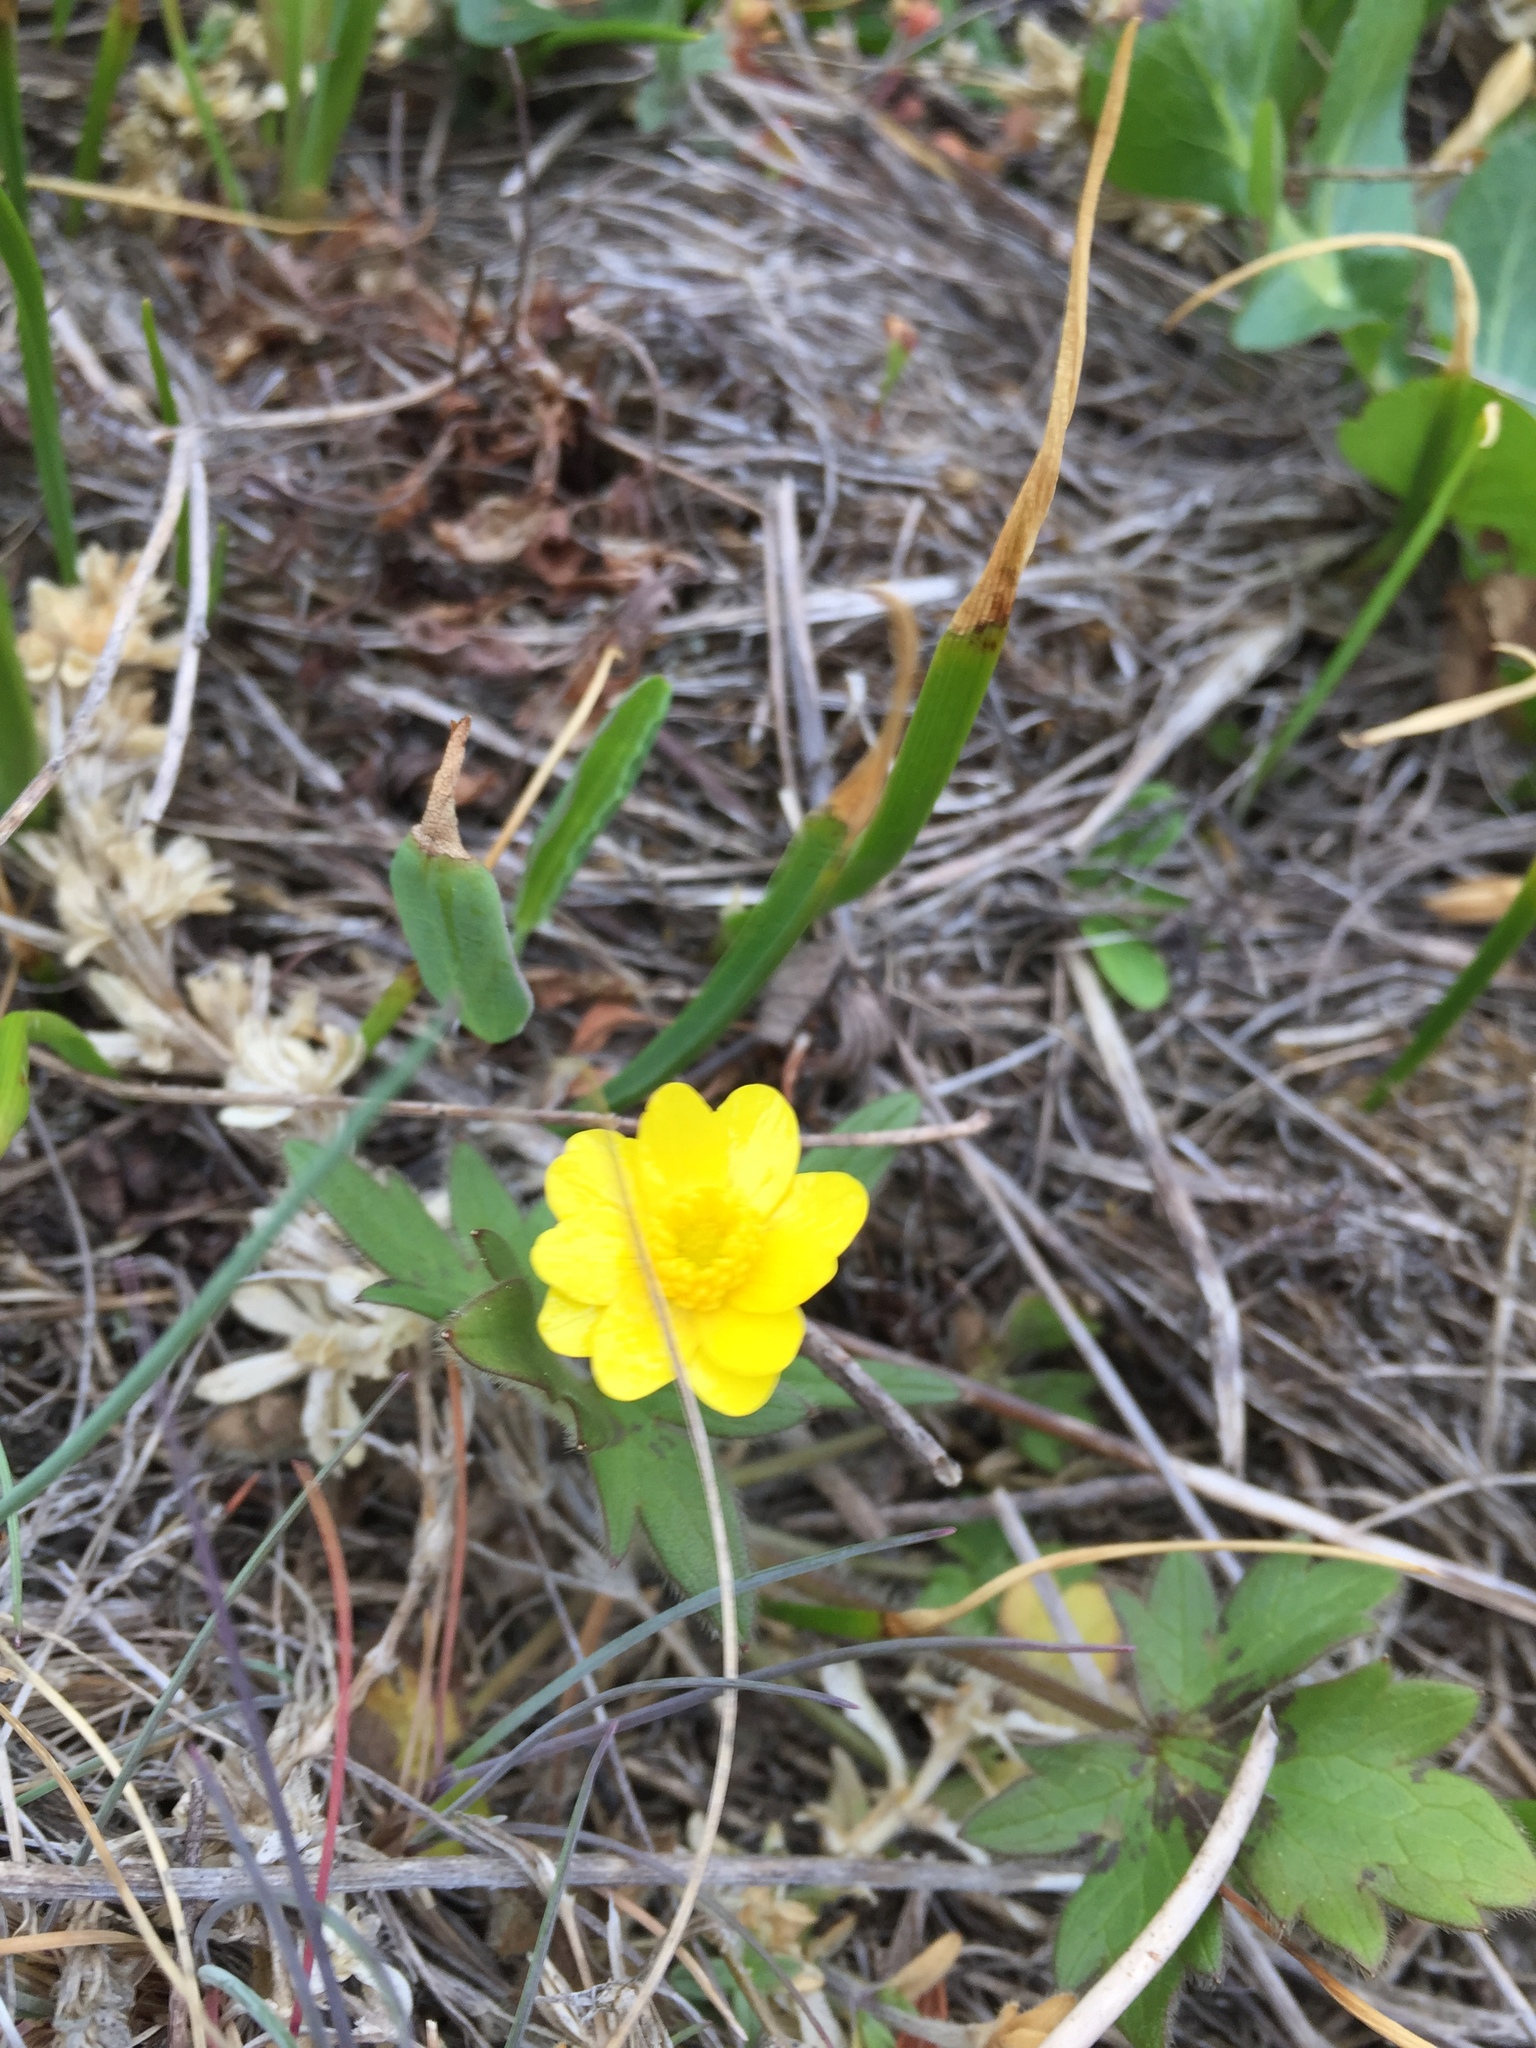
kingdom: Plantae
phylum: Tracheophyta
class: Magnoliopsida
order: Ranunculales
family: Ranunculaceae
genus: Ranunculus
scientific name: Ranunculus californicus
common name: California buttercup
